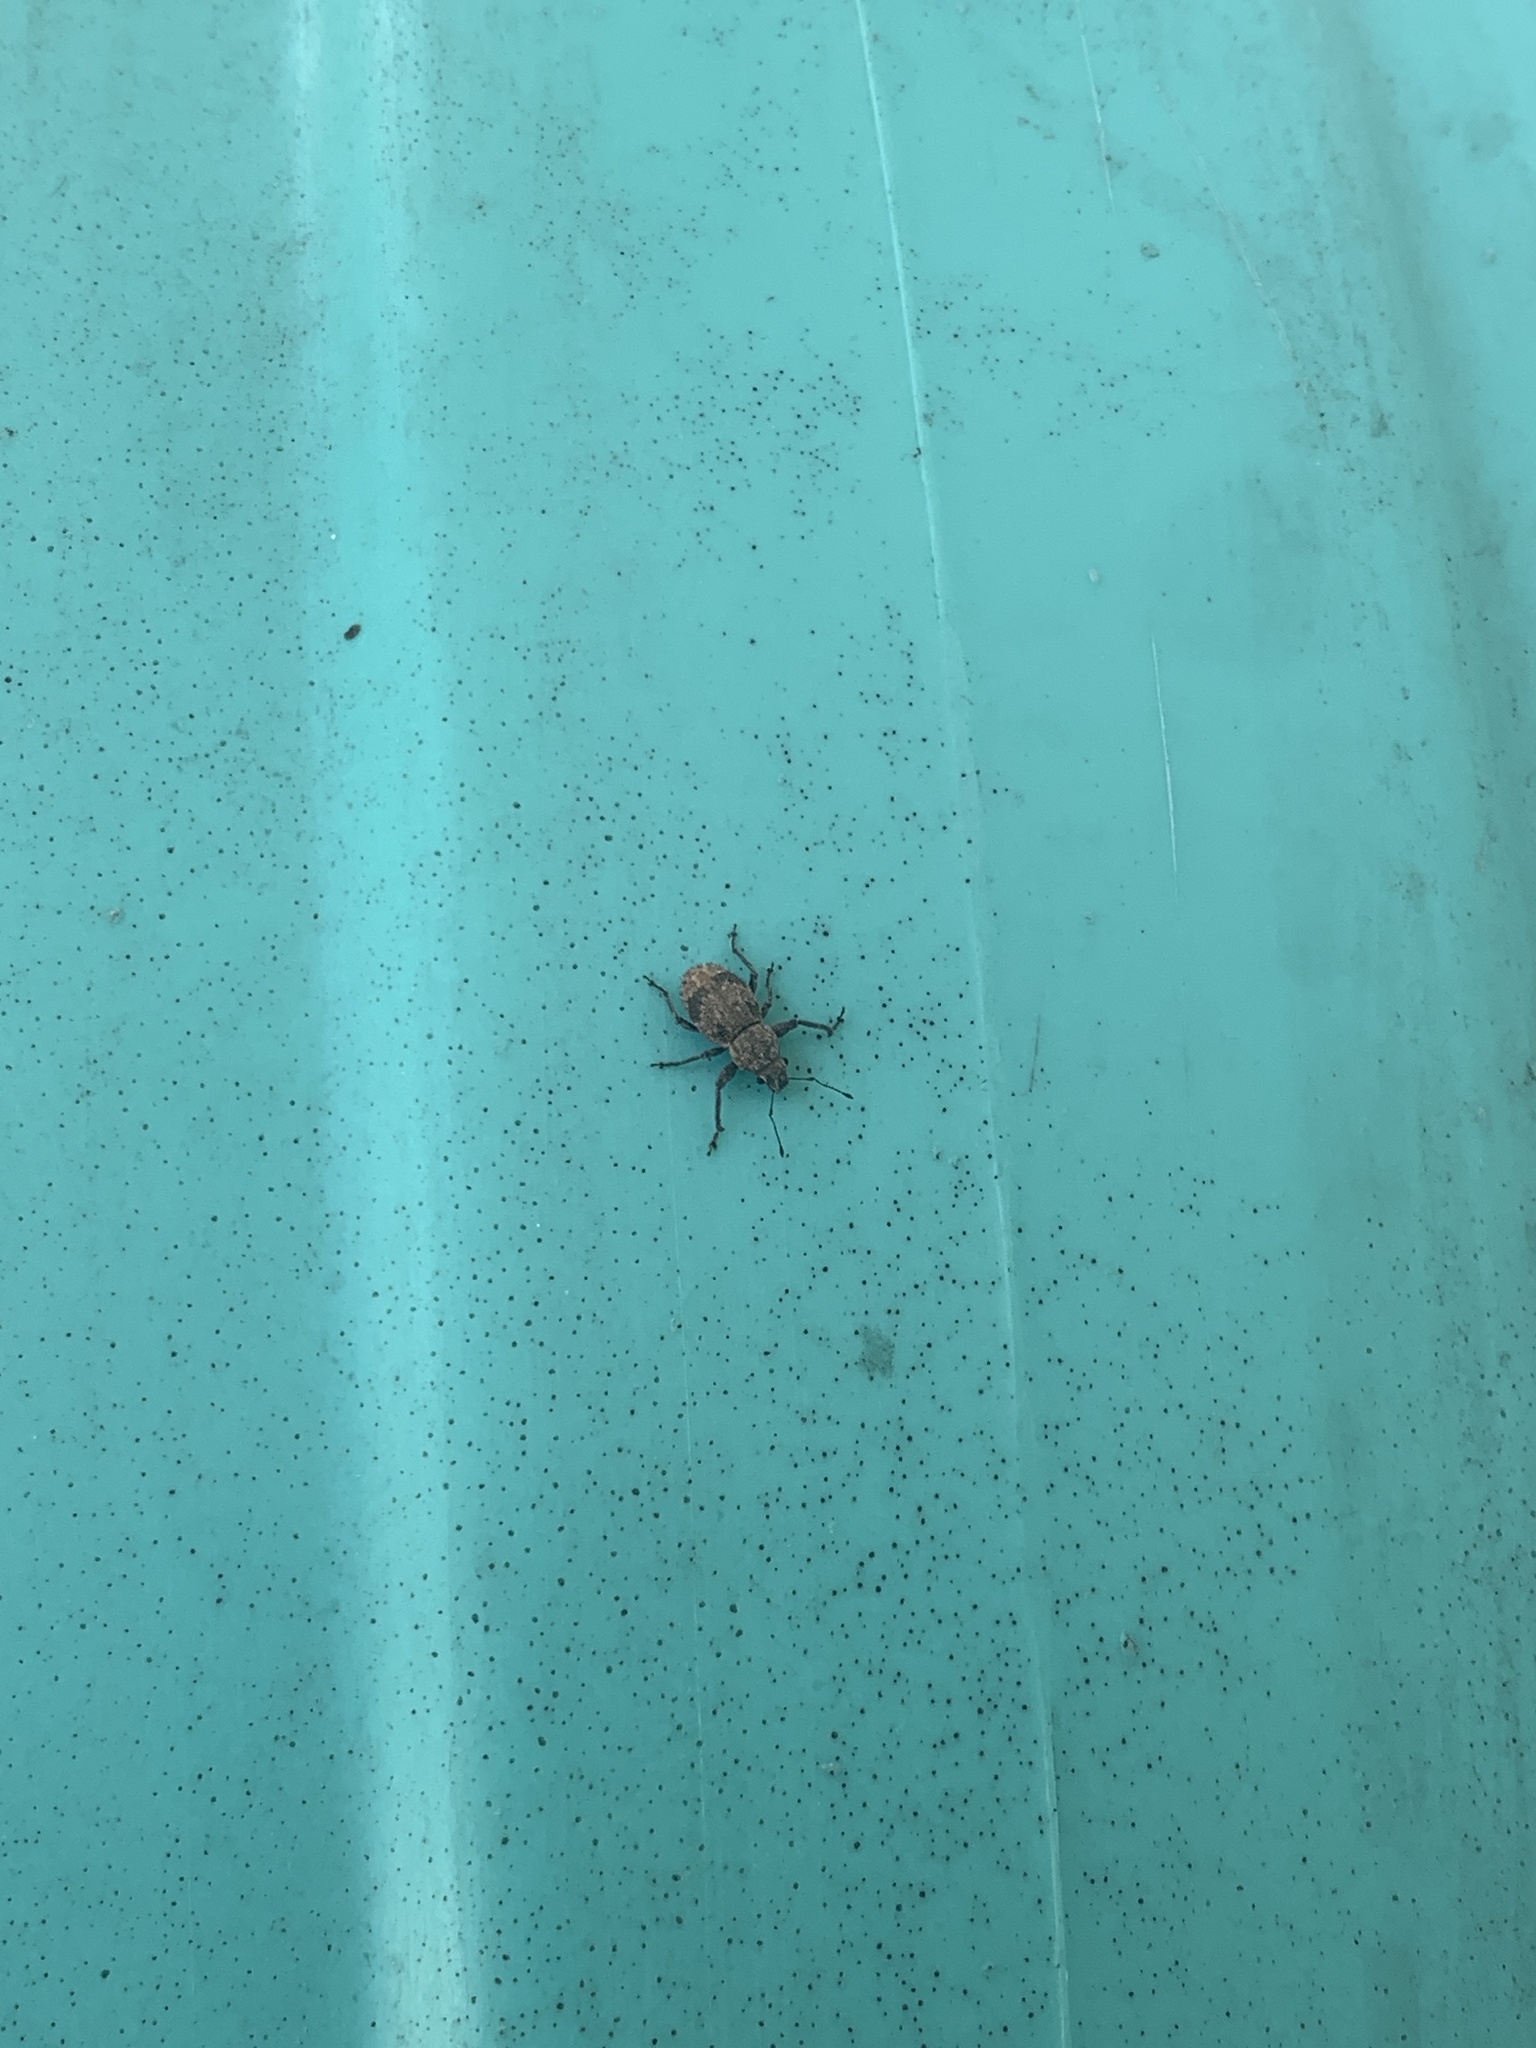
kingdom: Animalia
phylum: Arthropoda
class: Insecta
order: Coleoptera
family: Curculionidae
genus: Pantomorus
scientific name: Pantomorus
